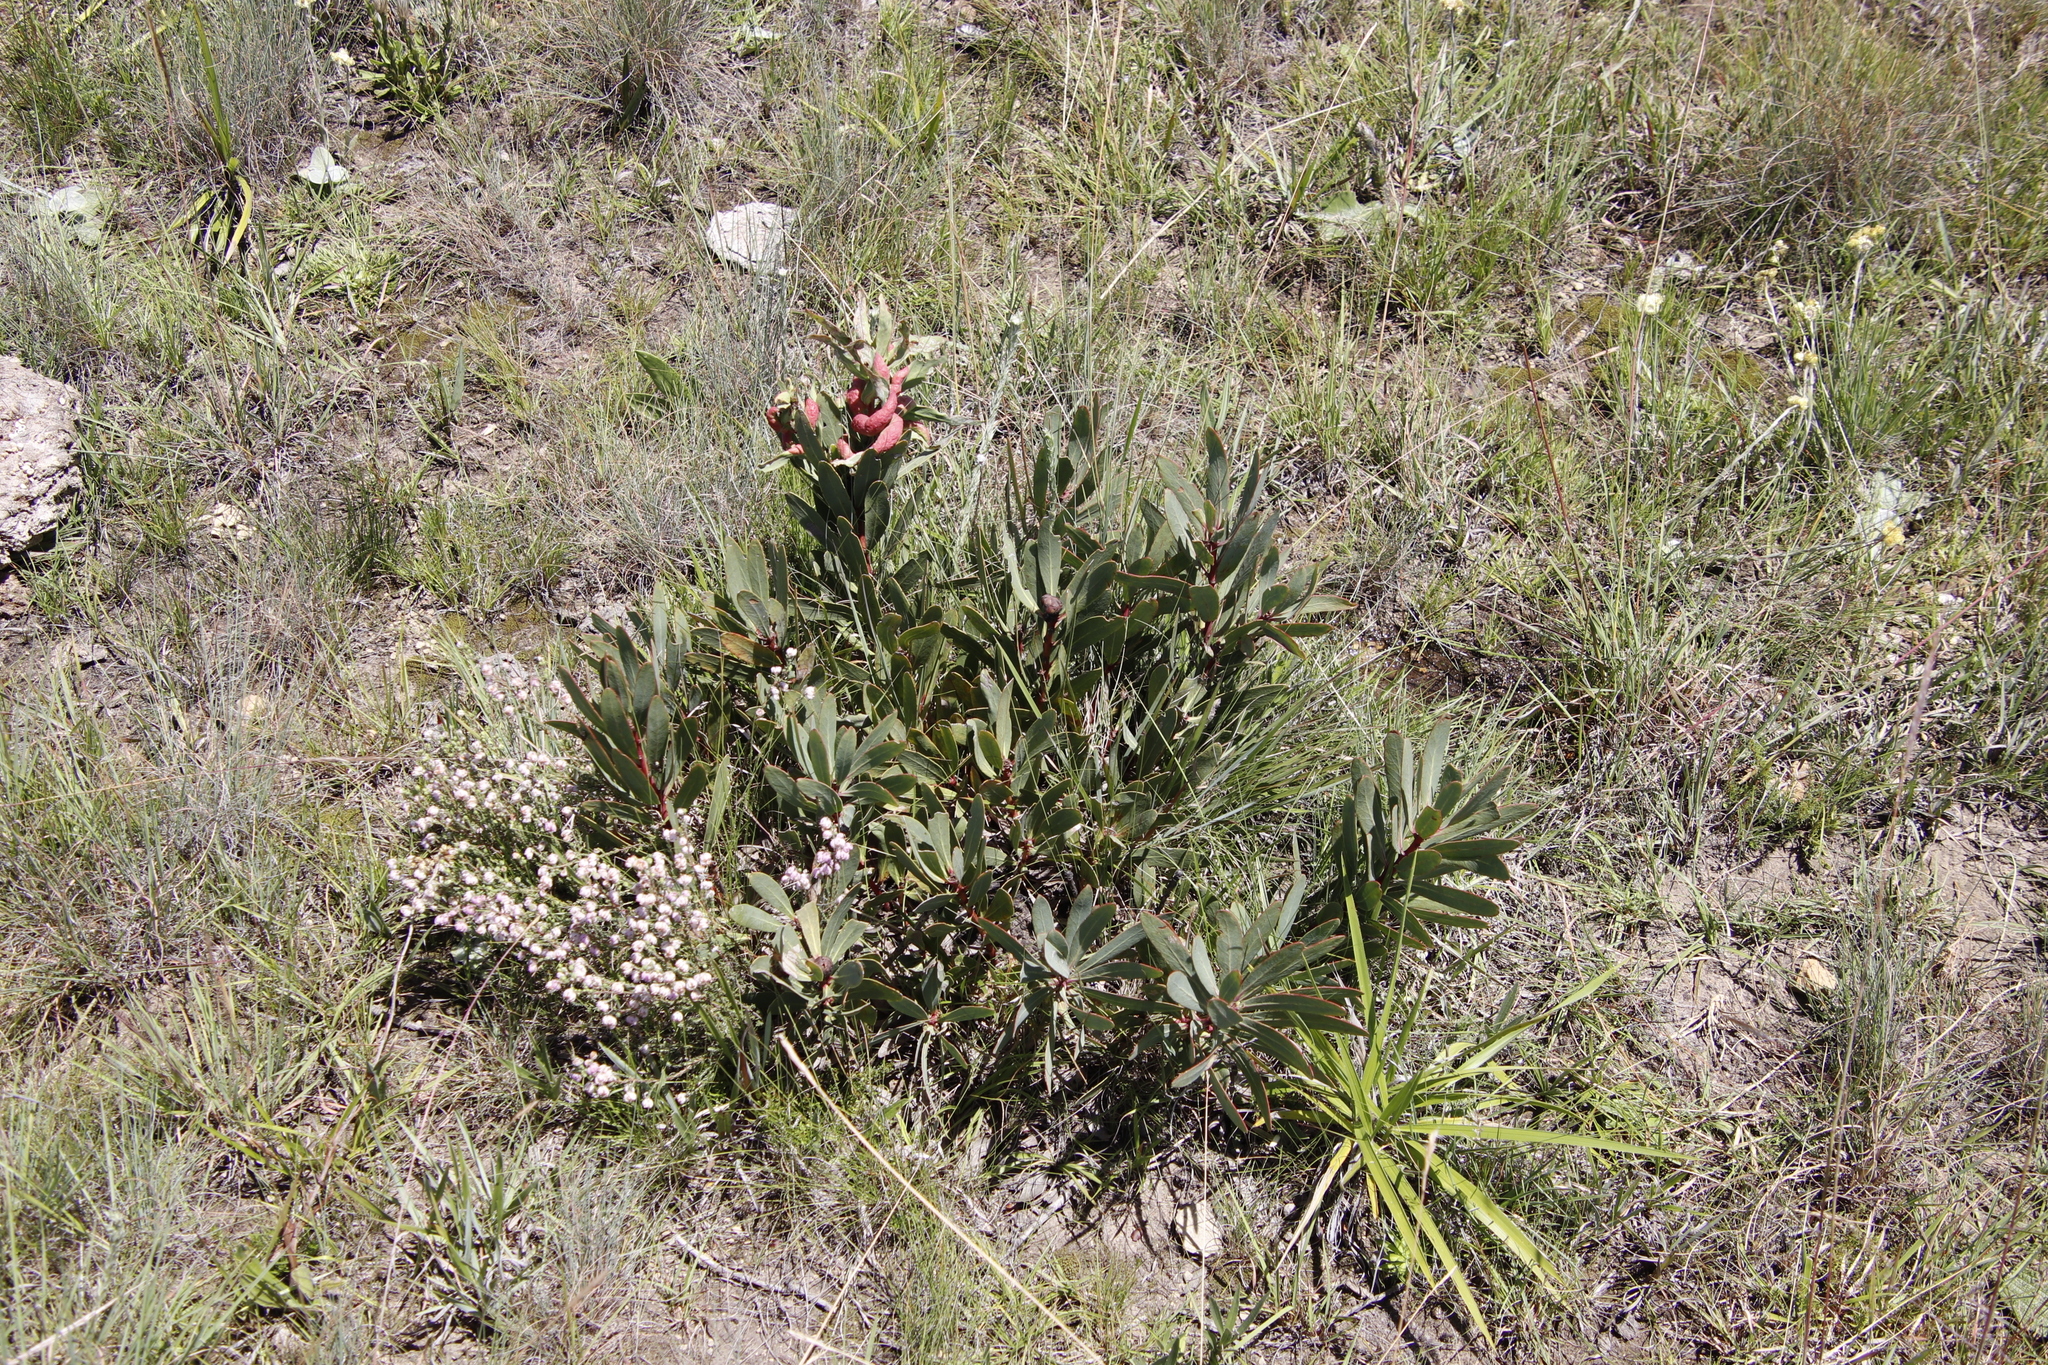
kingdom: Plantae
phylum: Tracheophyta
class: Magnoliopsida
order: Proteales
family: Proteaceae
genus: Protea
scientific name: Protea caffra
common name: Common sugarbush
